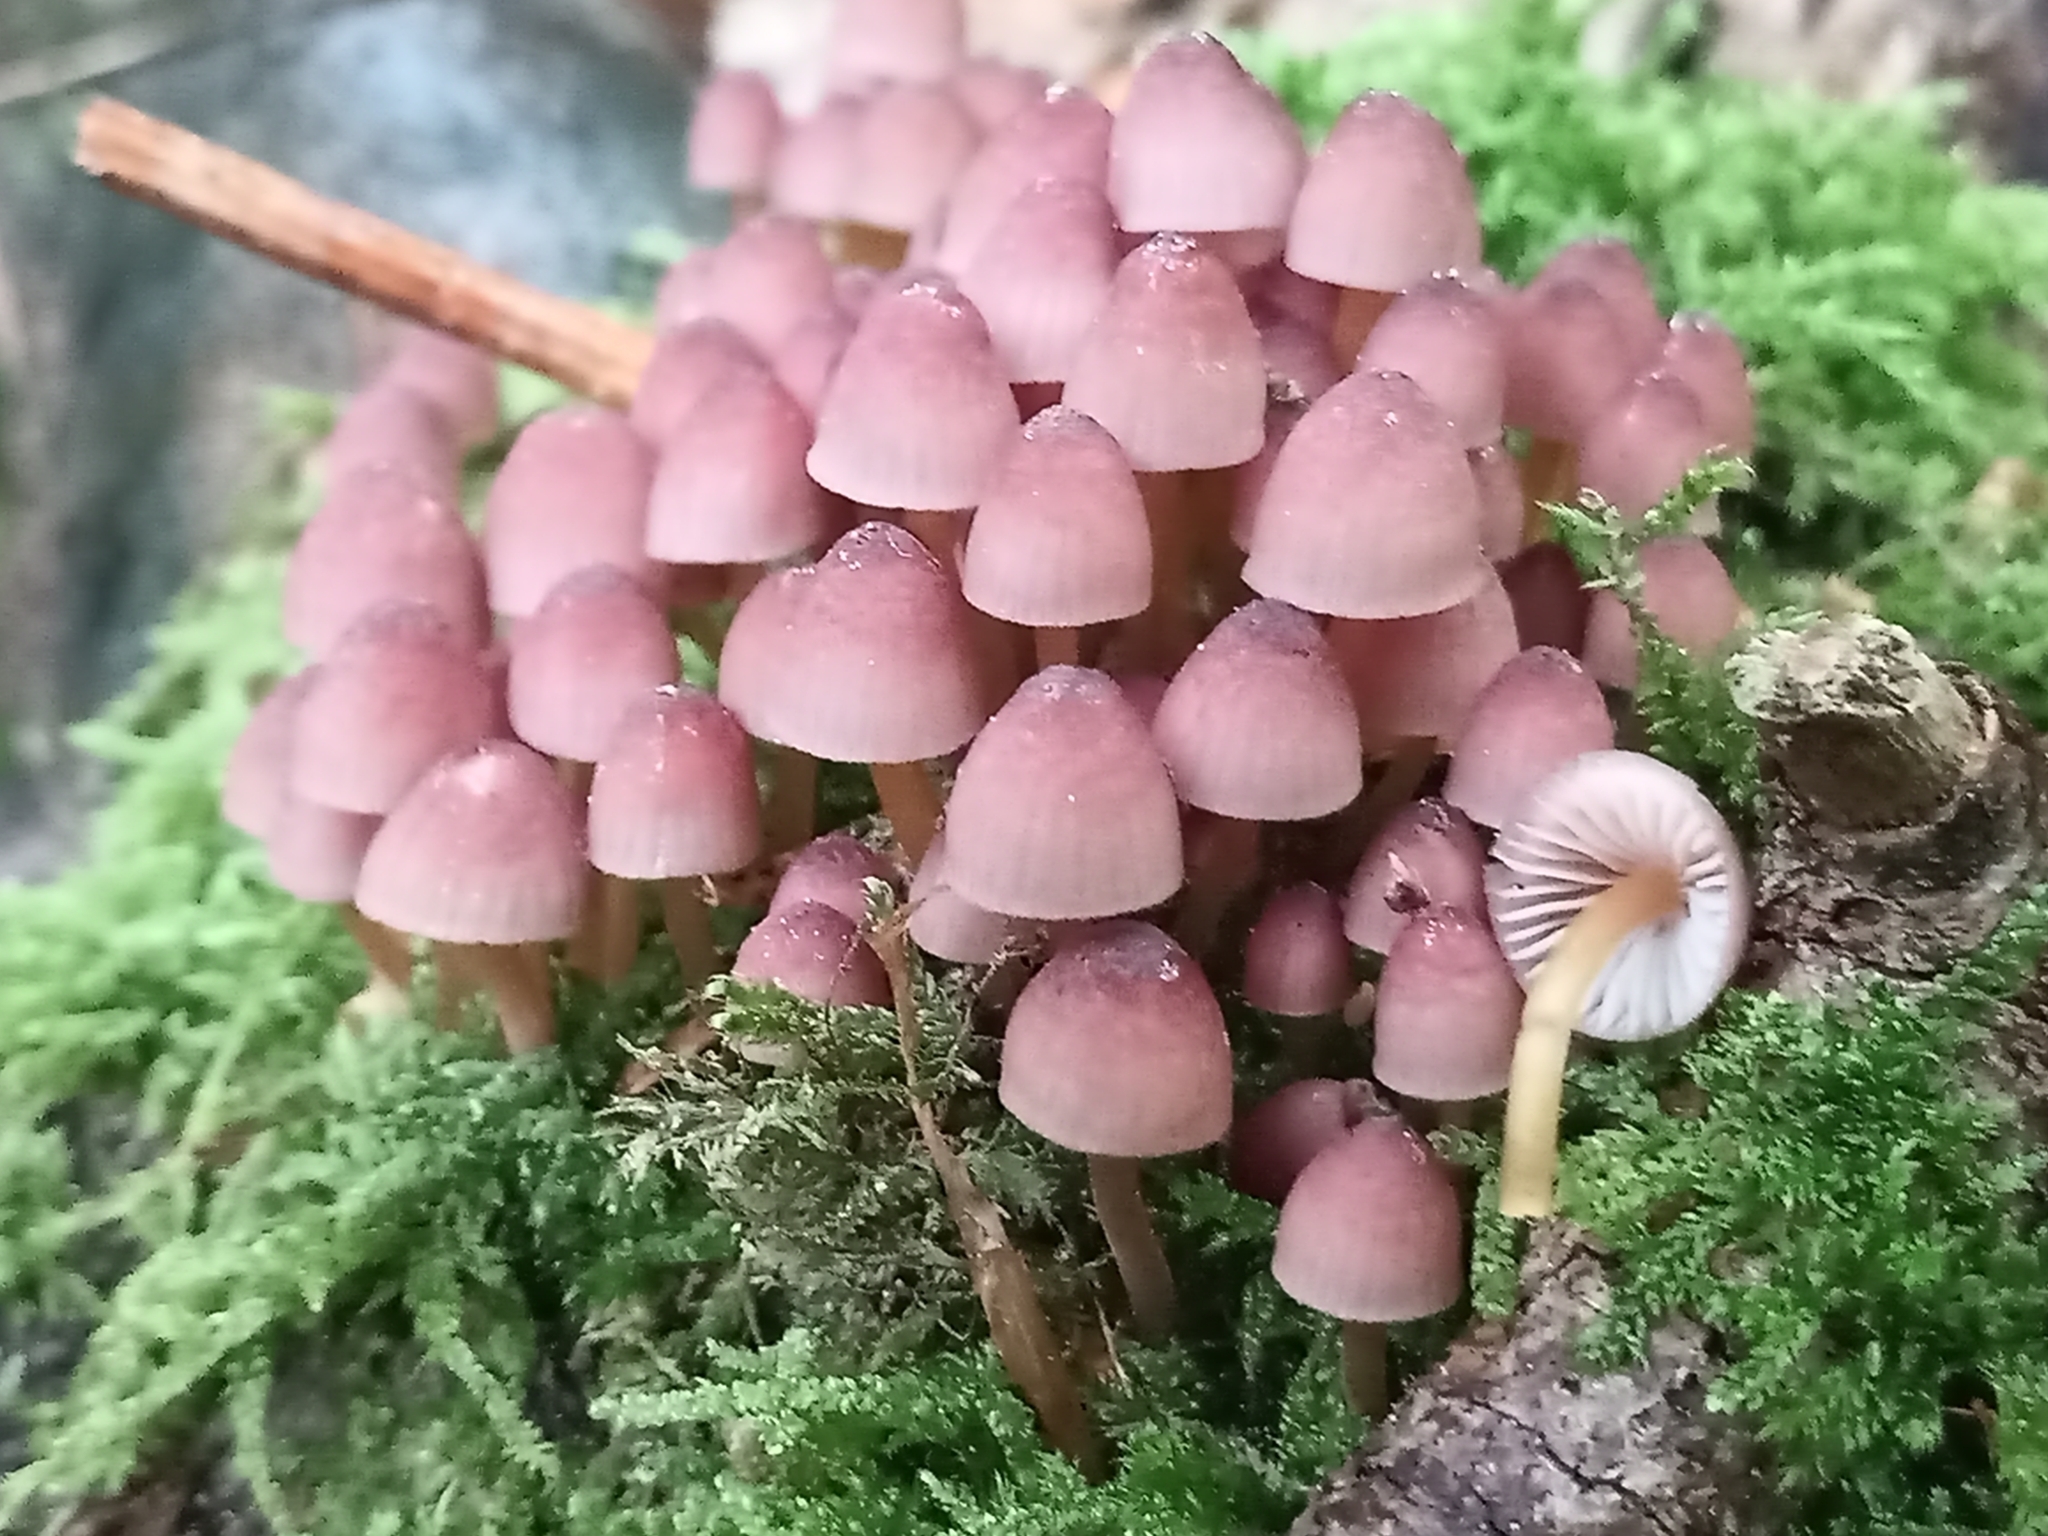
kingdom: Fungi
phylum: Basidiomycota
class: Agaricomycetes
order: Agaricales
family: Mycenaceae
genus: Mycena
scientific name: Mycena renati
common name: Beautiful bonnet
